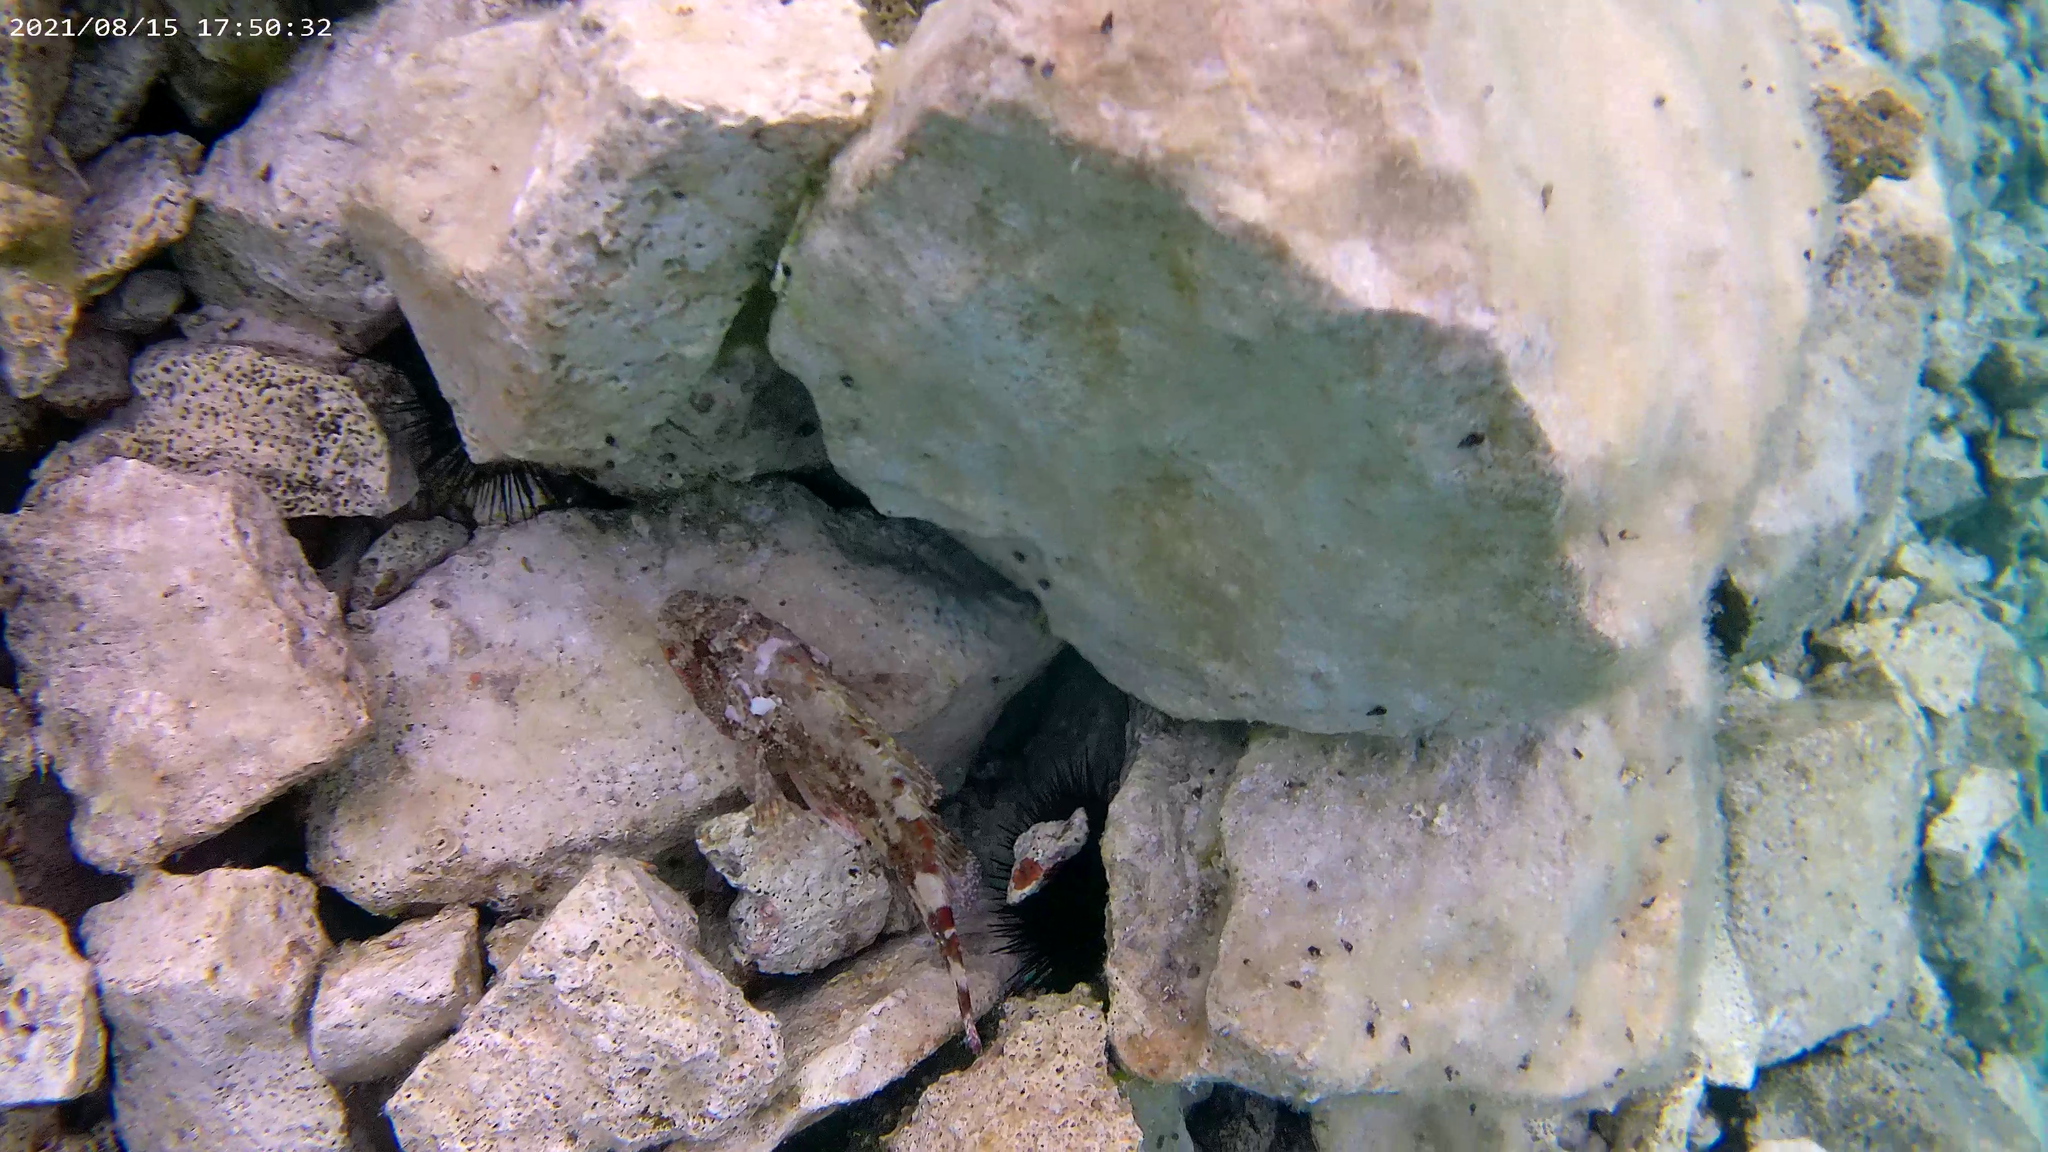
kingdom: Animalia
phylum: Chordata
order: Scorpaeniformes
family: Scorpaenidae
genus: Scorpaena
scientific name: Scorpaena maderensis
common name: Madeira rockfish
